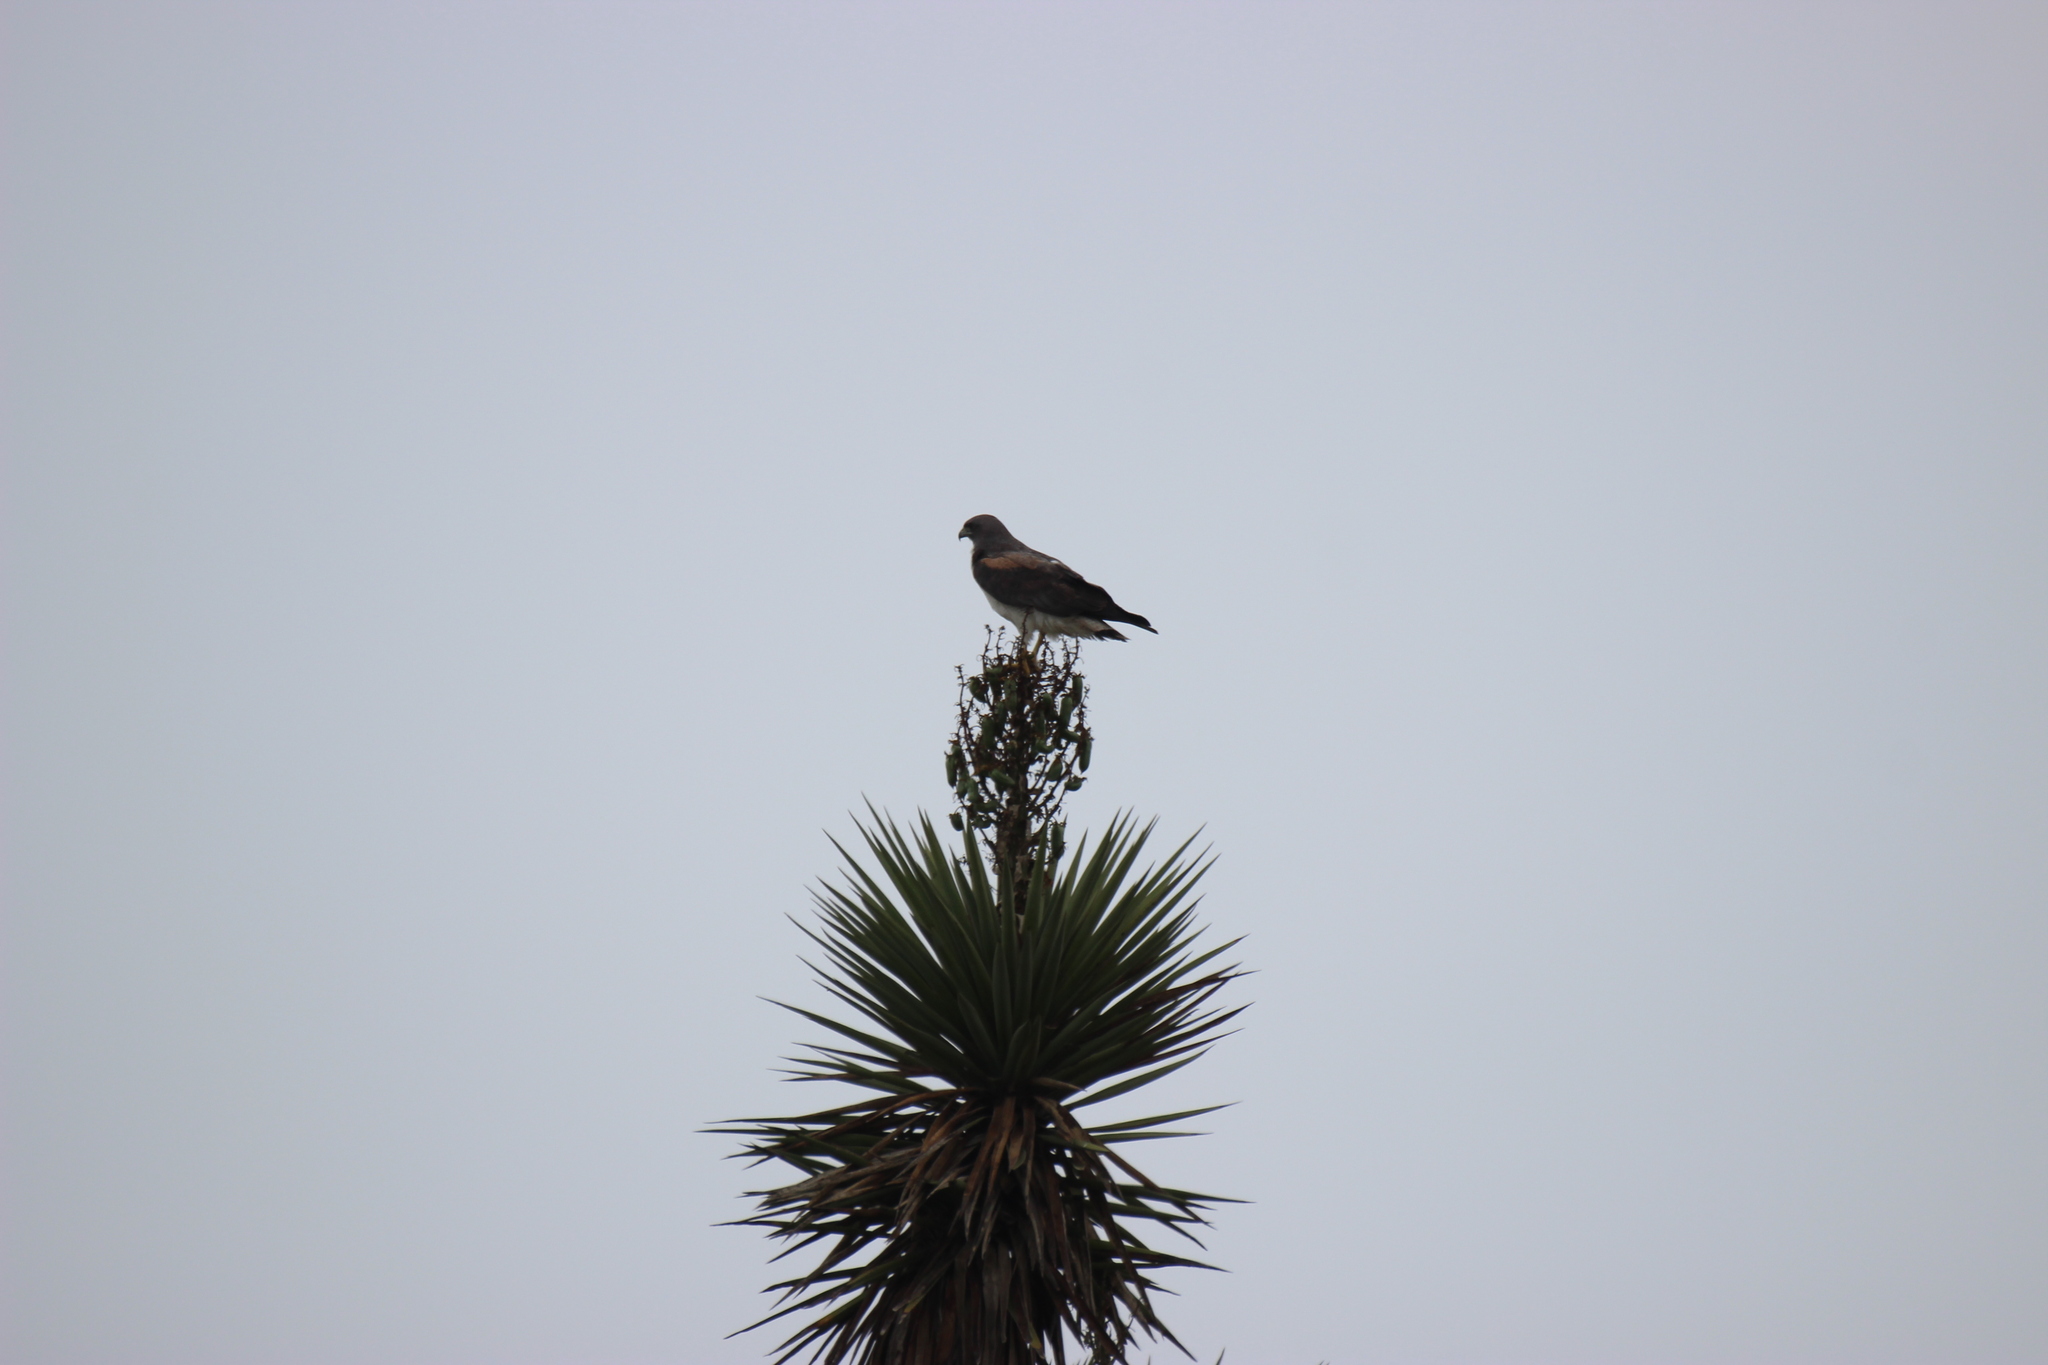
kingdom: Animalia
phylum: Chordata
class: Aves
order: Accipitriformes
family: Accipitridae
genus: Buteo
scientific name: Buteo albicaudatus
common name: White-tailed hawk
